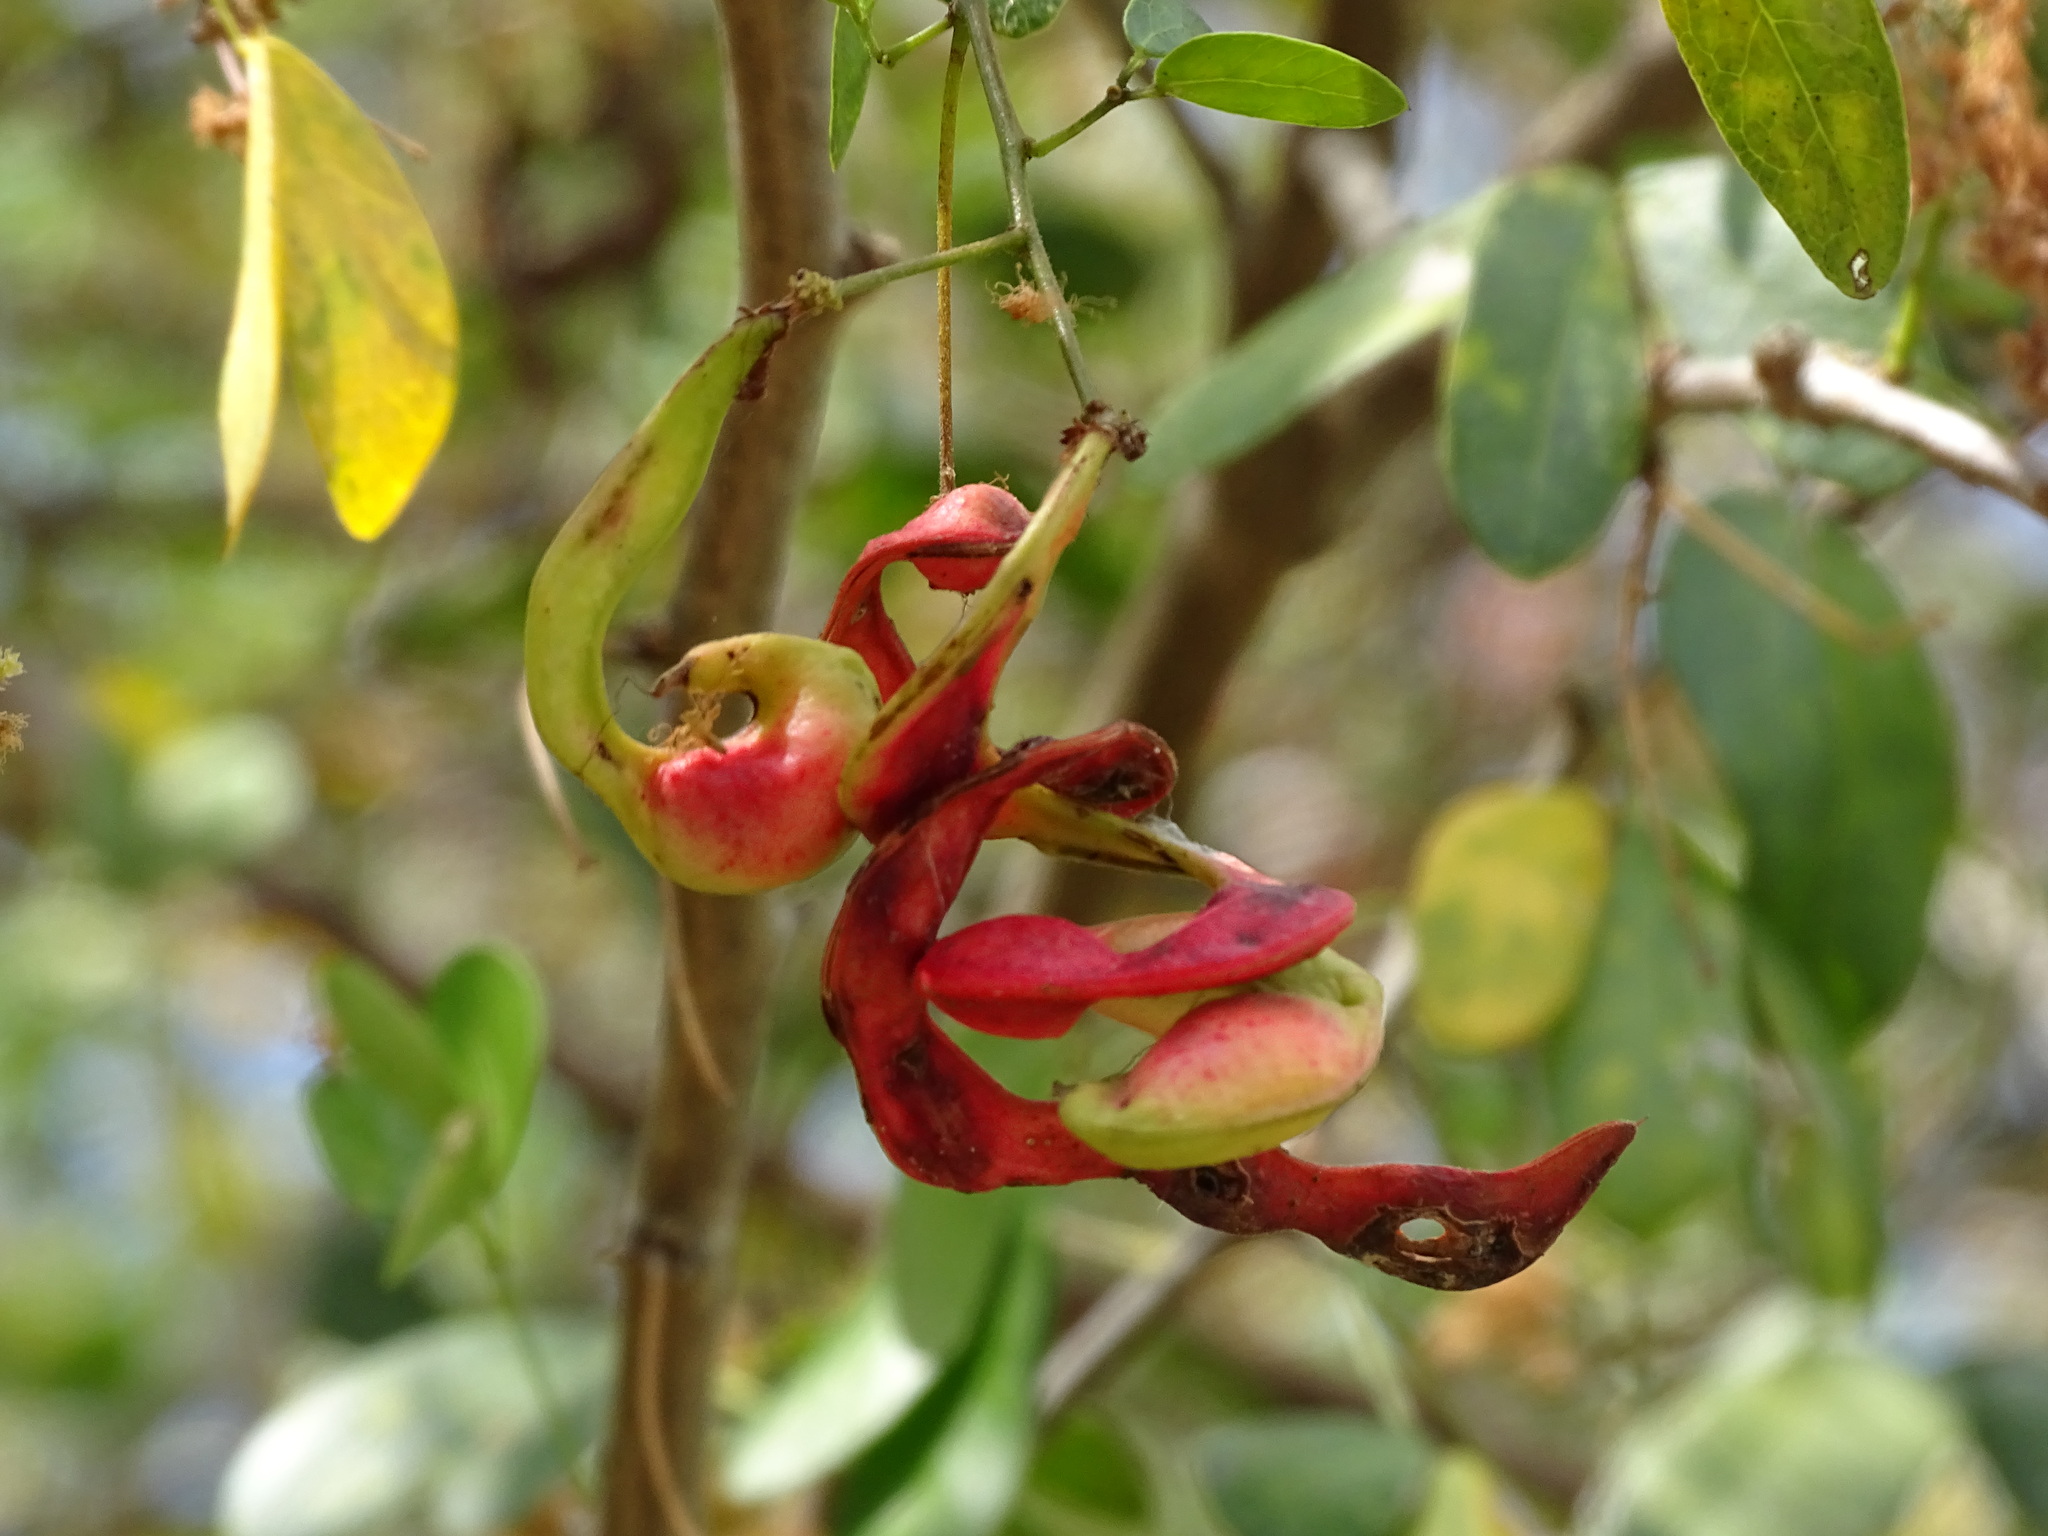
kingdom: Plantae
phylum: Tracheophyta
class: Magnoliopsida
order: Fabales
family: Fabaceae
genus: Pithecellobium
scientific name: Pithecellobium unguis-cati
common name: Cat's-claw
